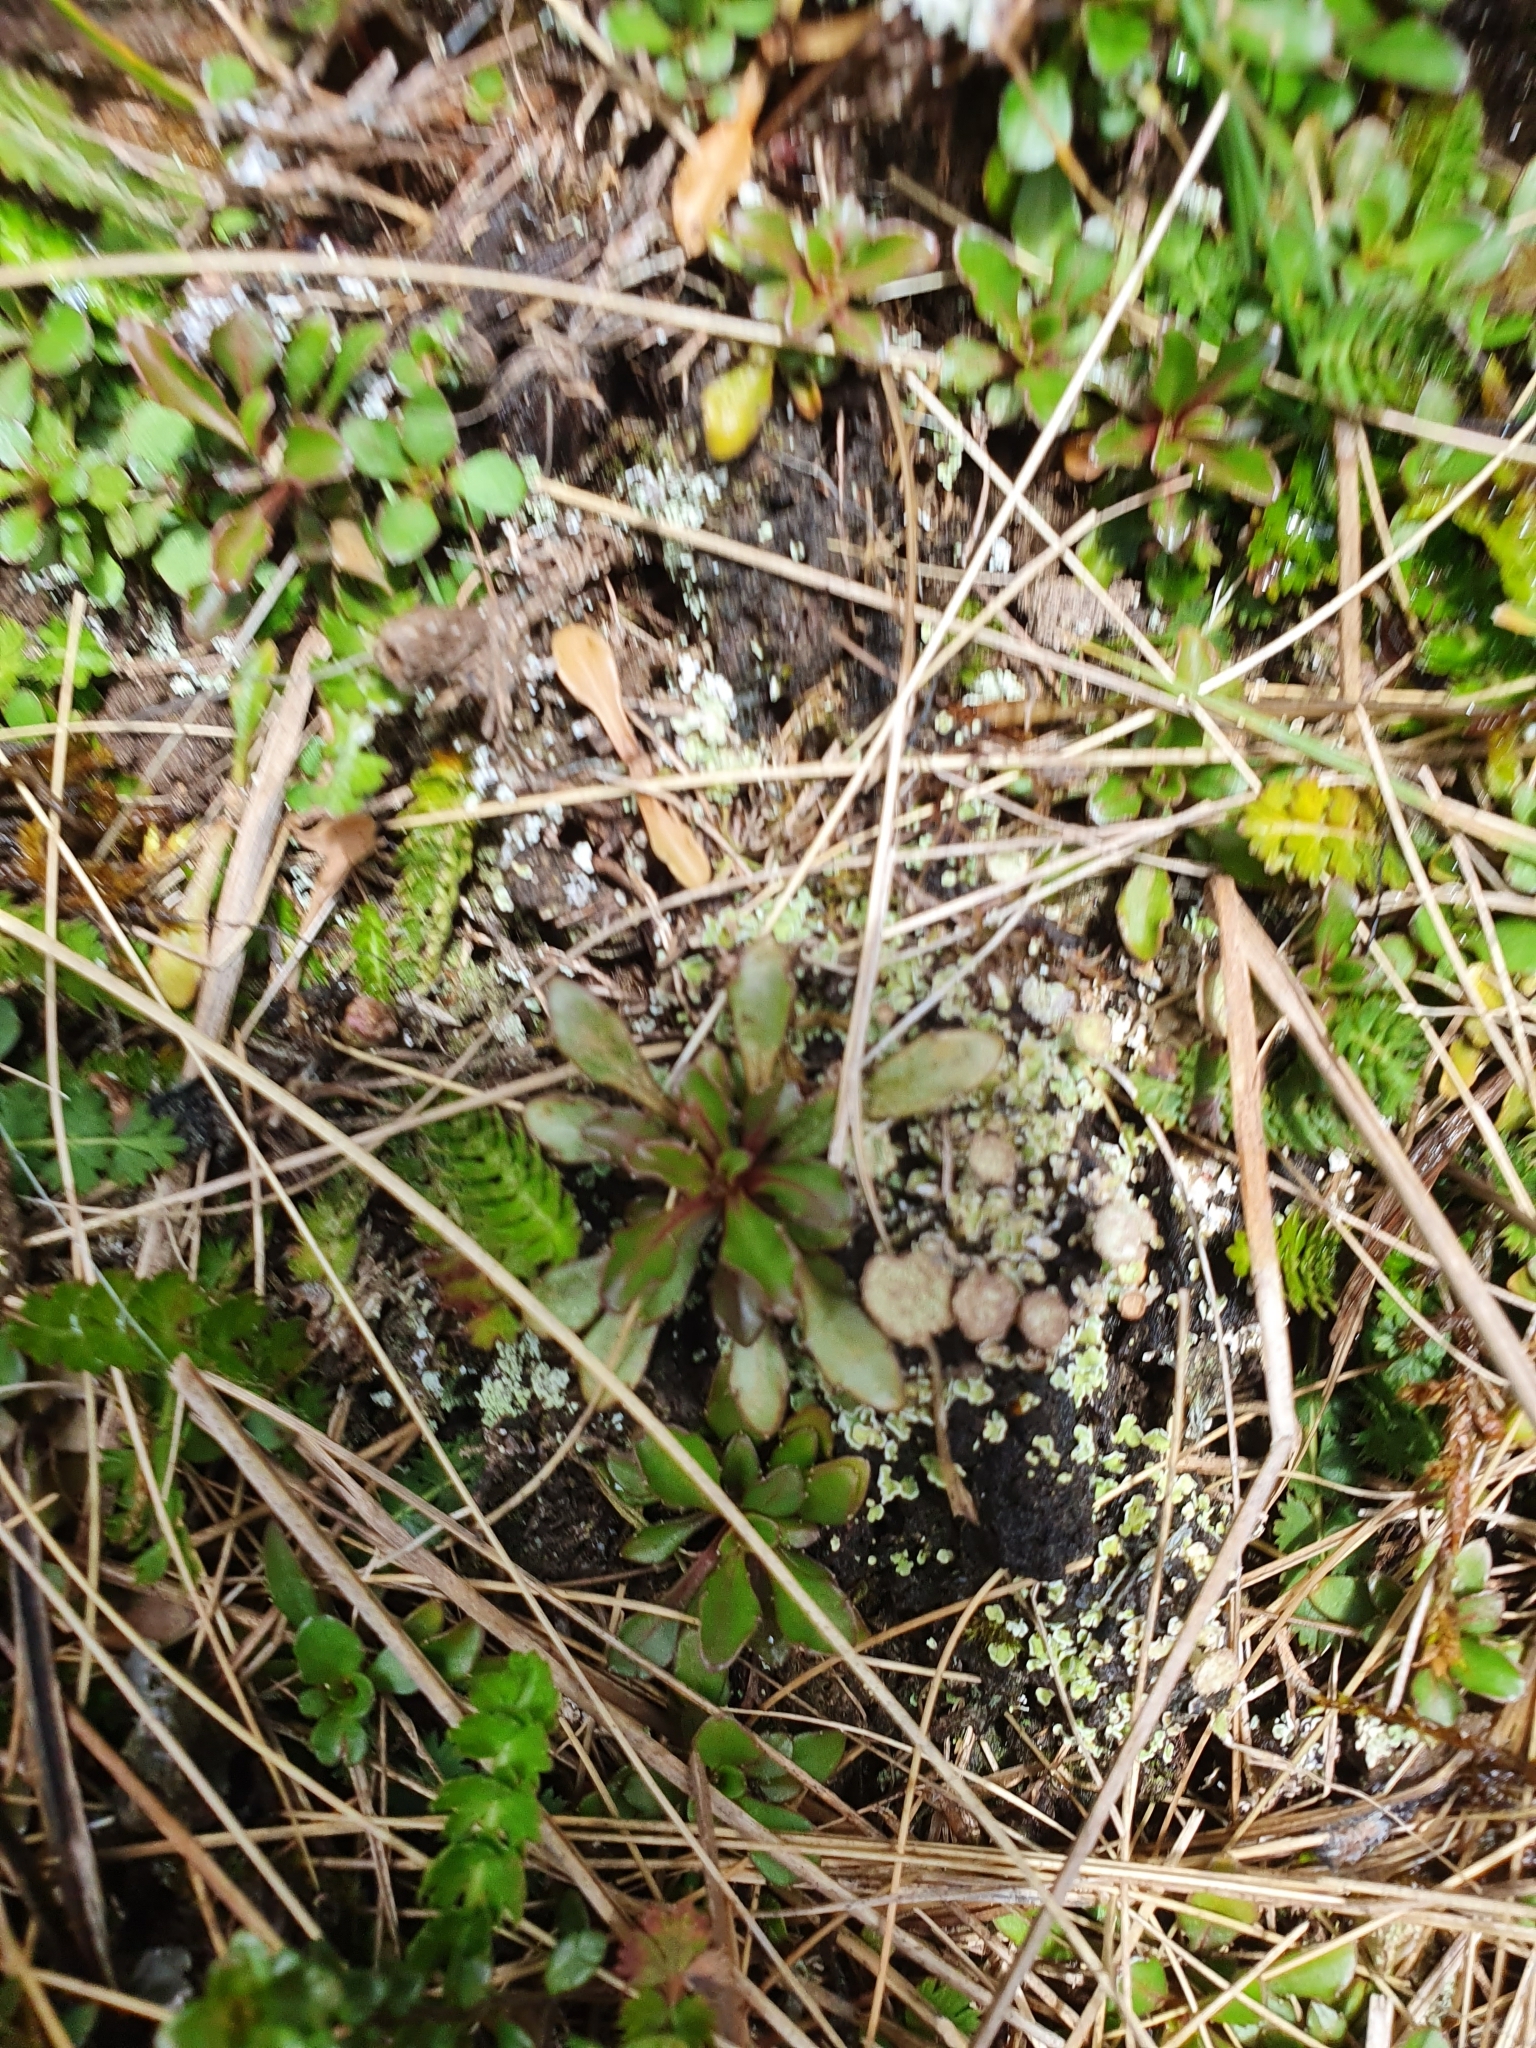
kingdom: Plantae
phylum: Tracheophyta
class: Magnoliopsida
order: Asterales
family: Campanulaceae
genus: Wahlenbergia
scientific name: Wahlenbergia albomarginata
